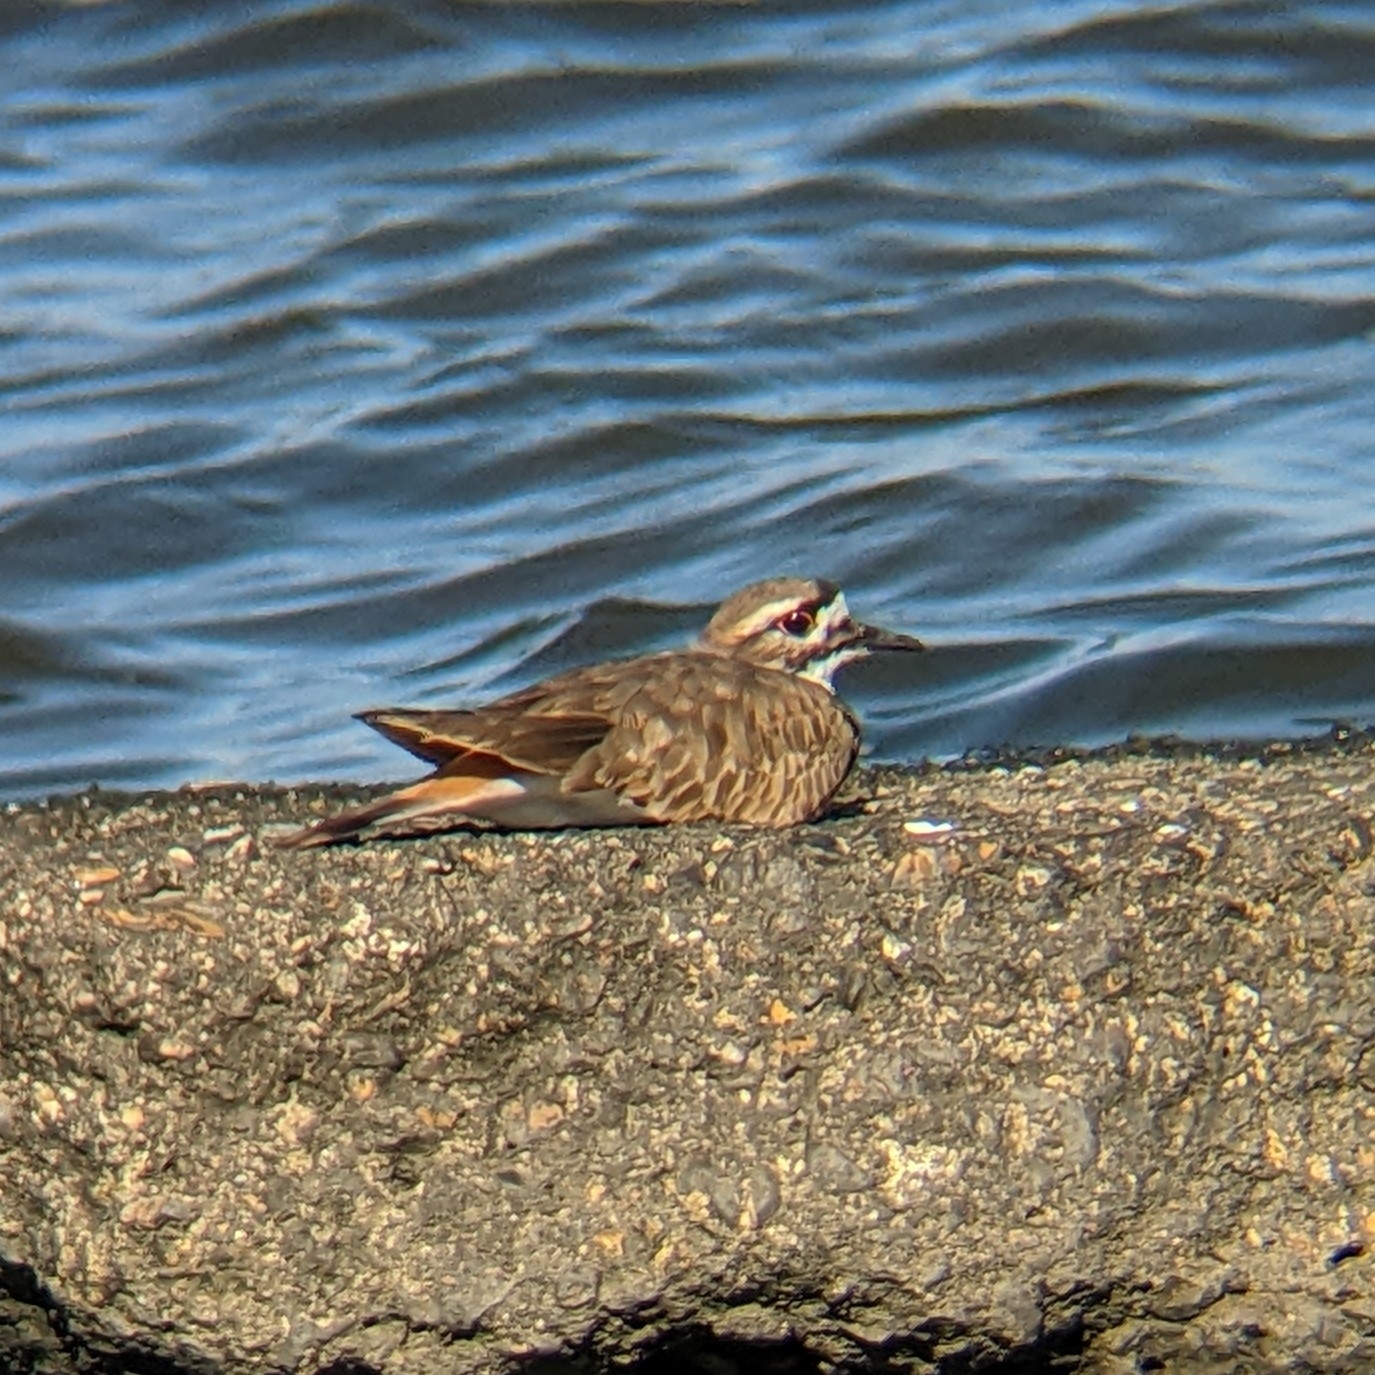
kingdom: Animalia
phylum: Chordata
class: Aves
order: Charadriiformes
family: Charadriidae
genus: Charadrius
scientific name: Charadrius vociferus
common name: Killdeer
